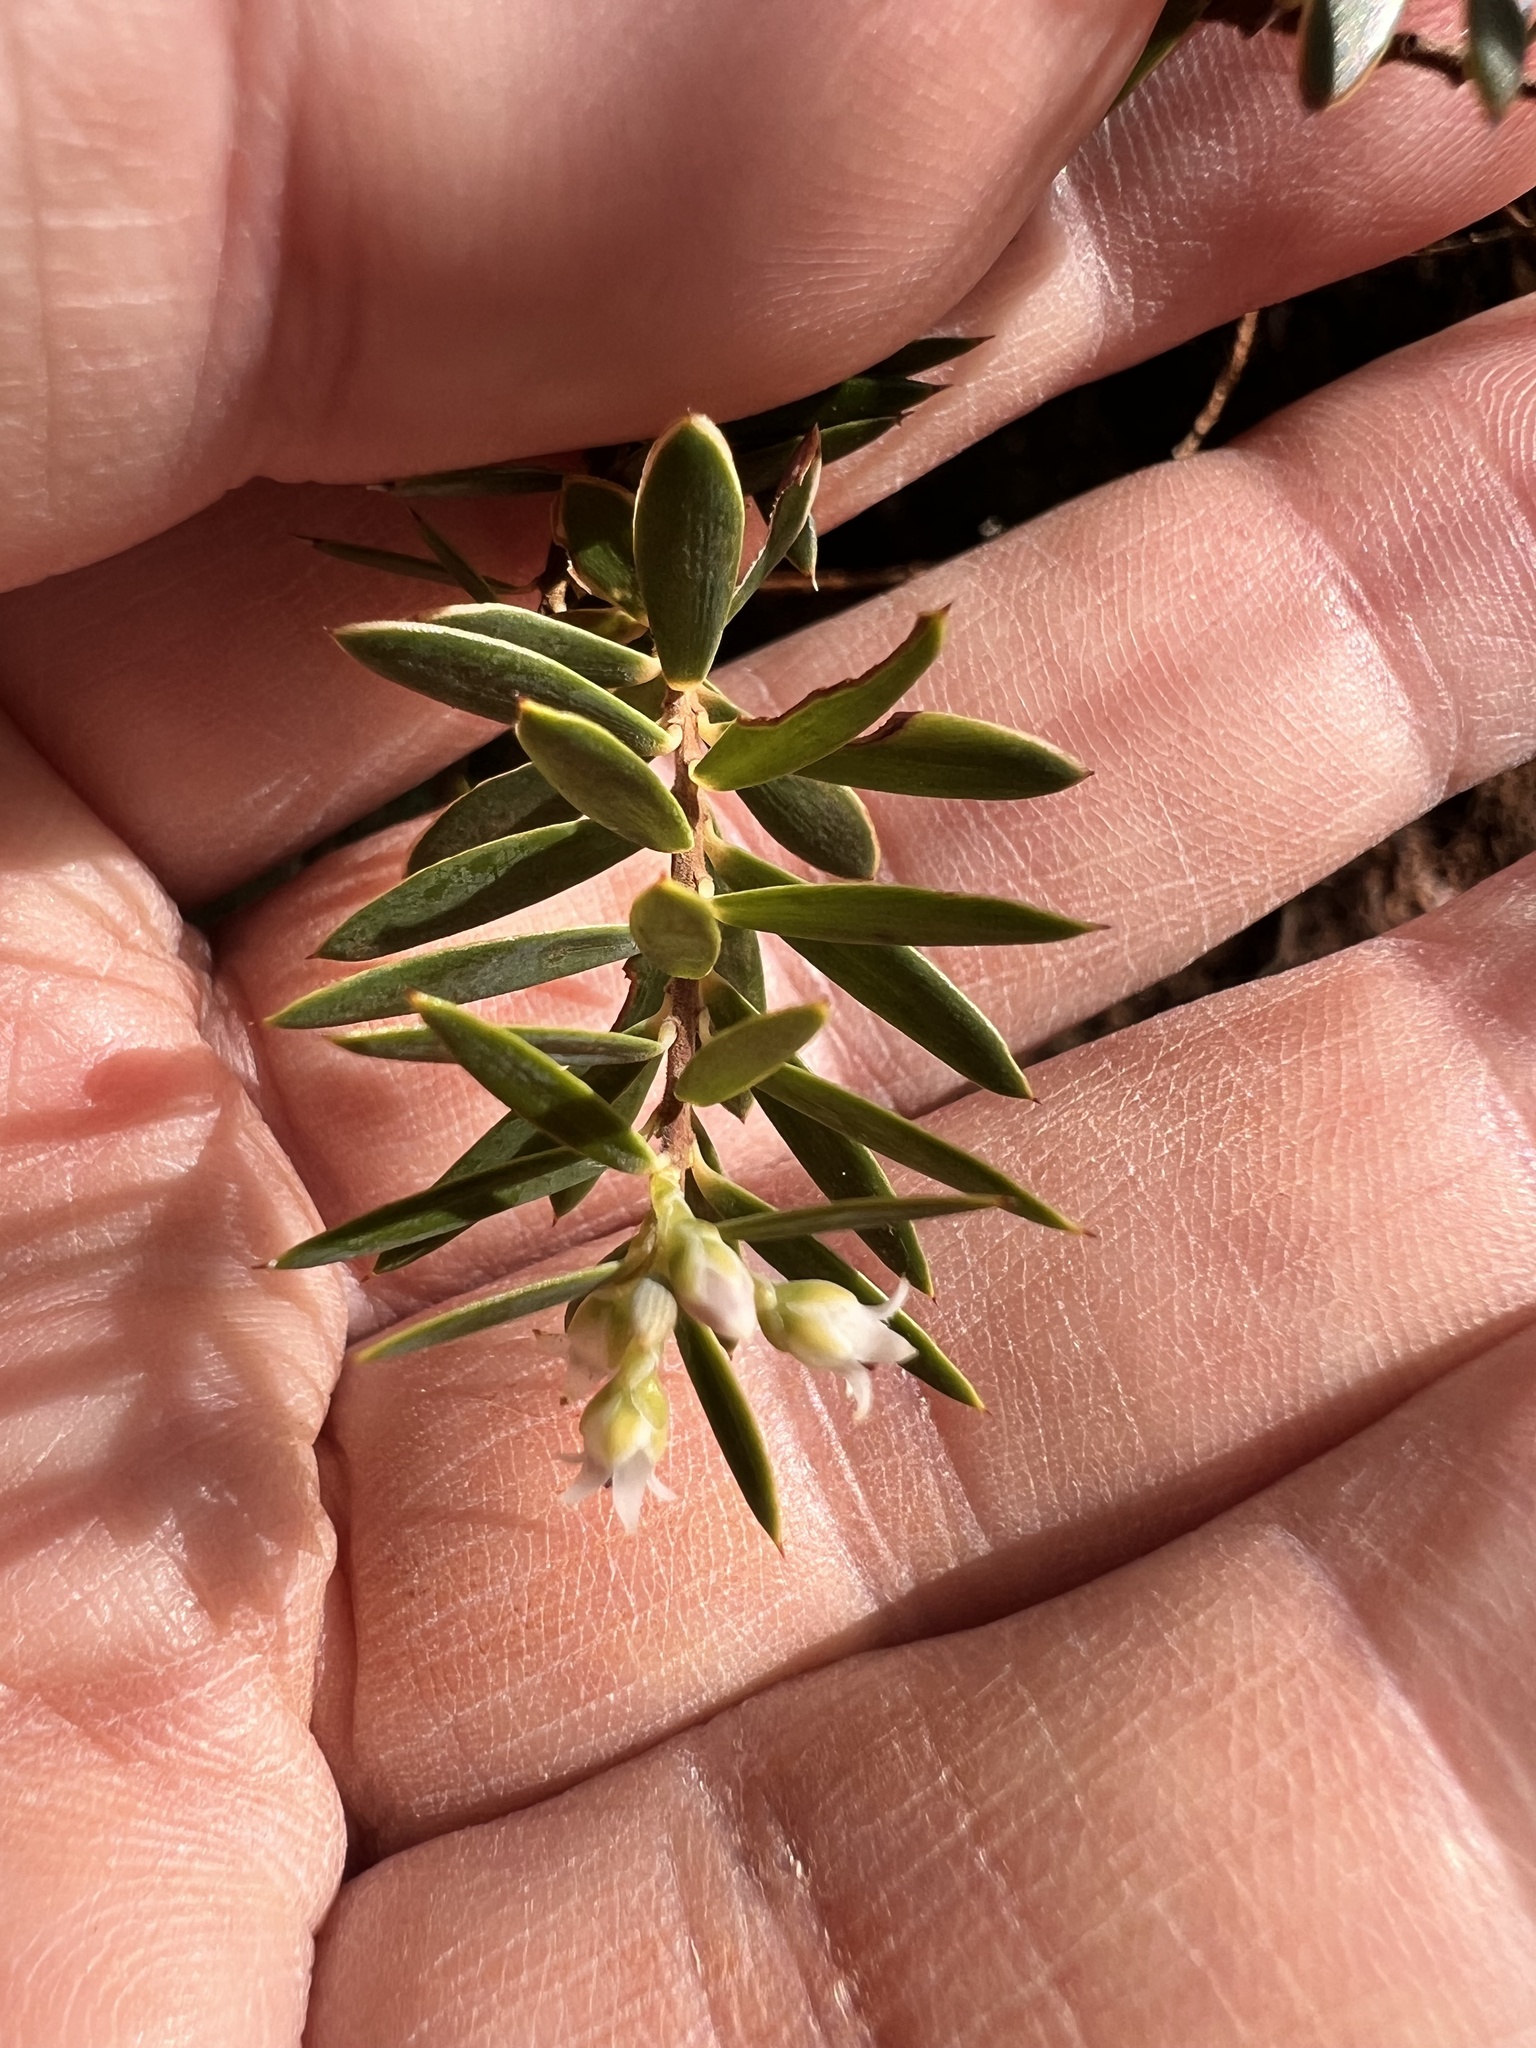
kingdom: Plantae
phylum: Tracheophyta
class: Magnoliopsida
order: Ericales
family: Ericaceae
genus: Leptecophylla
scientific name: Leptecophylla tameiameiae
